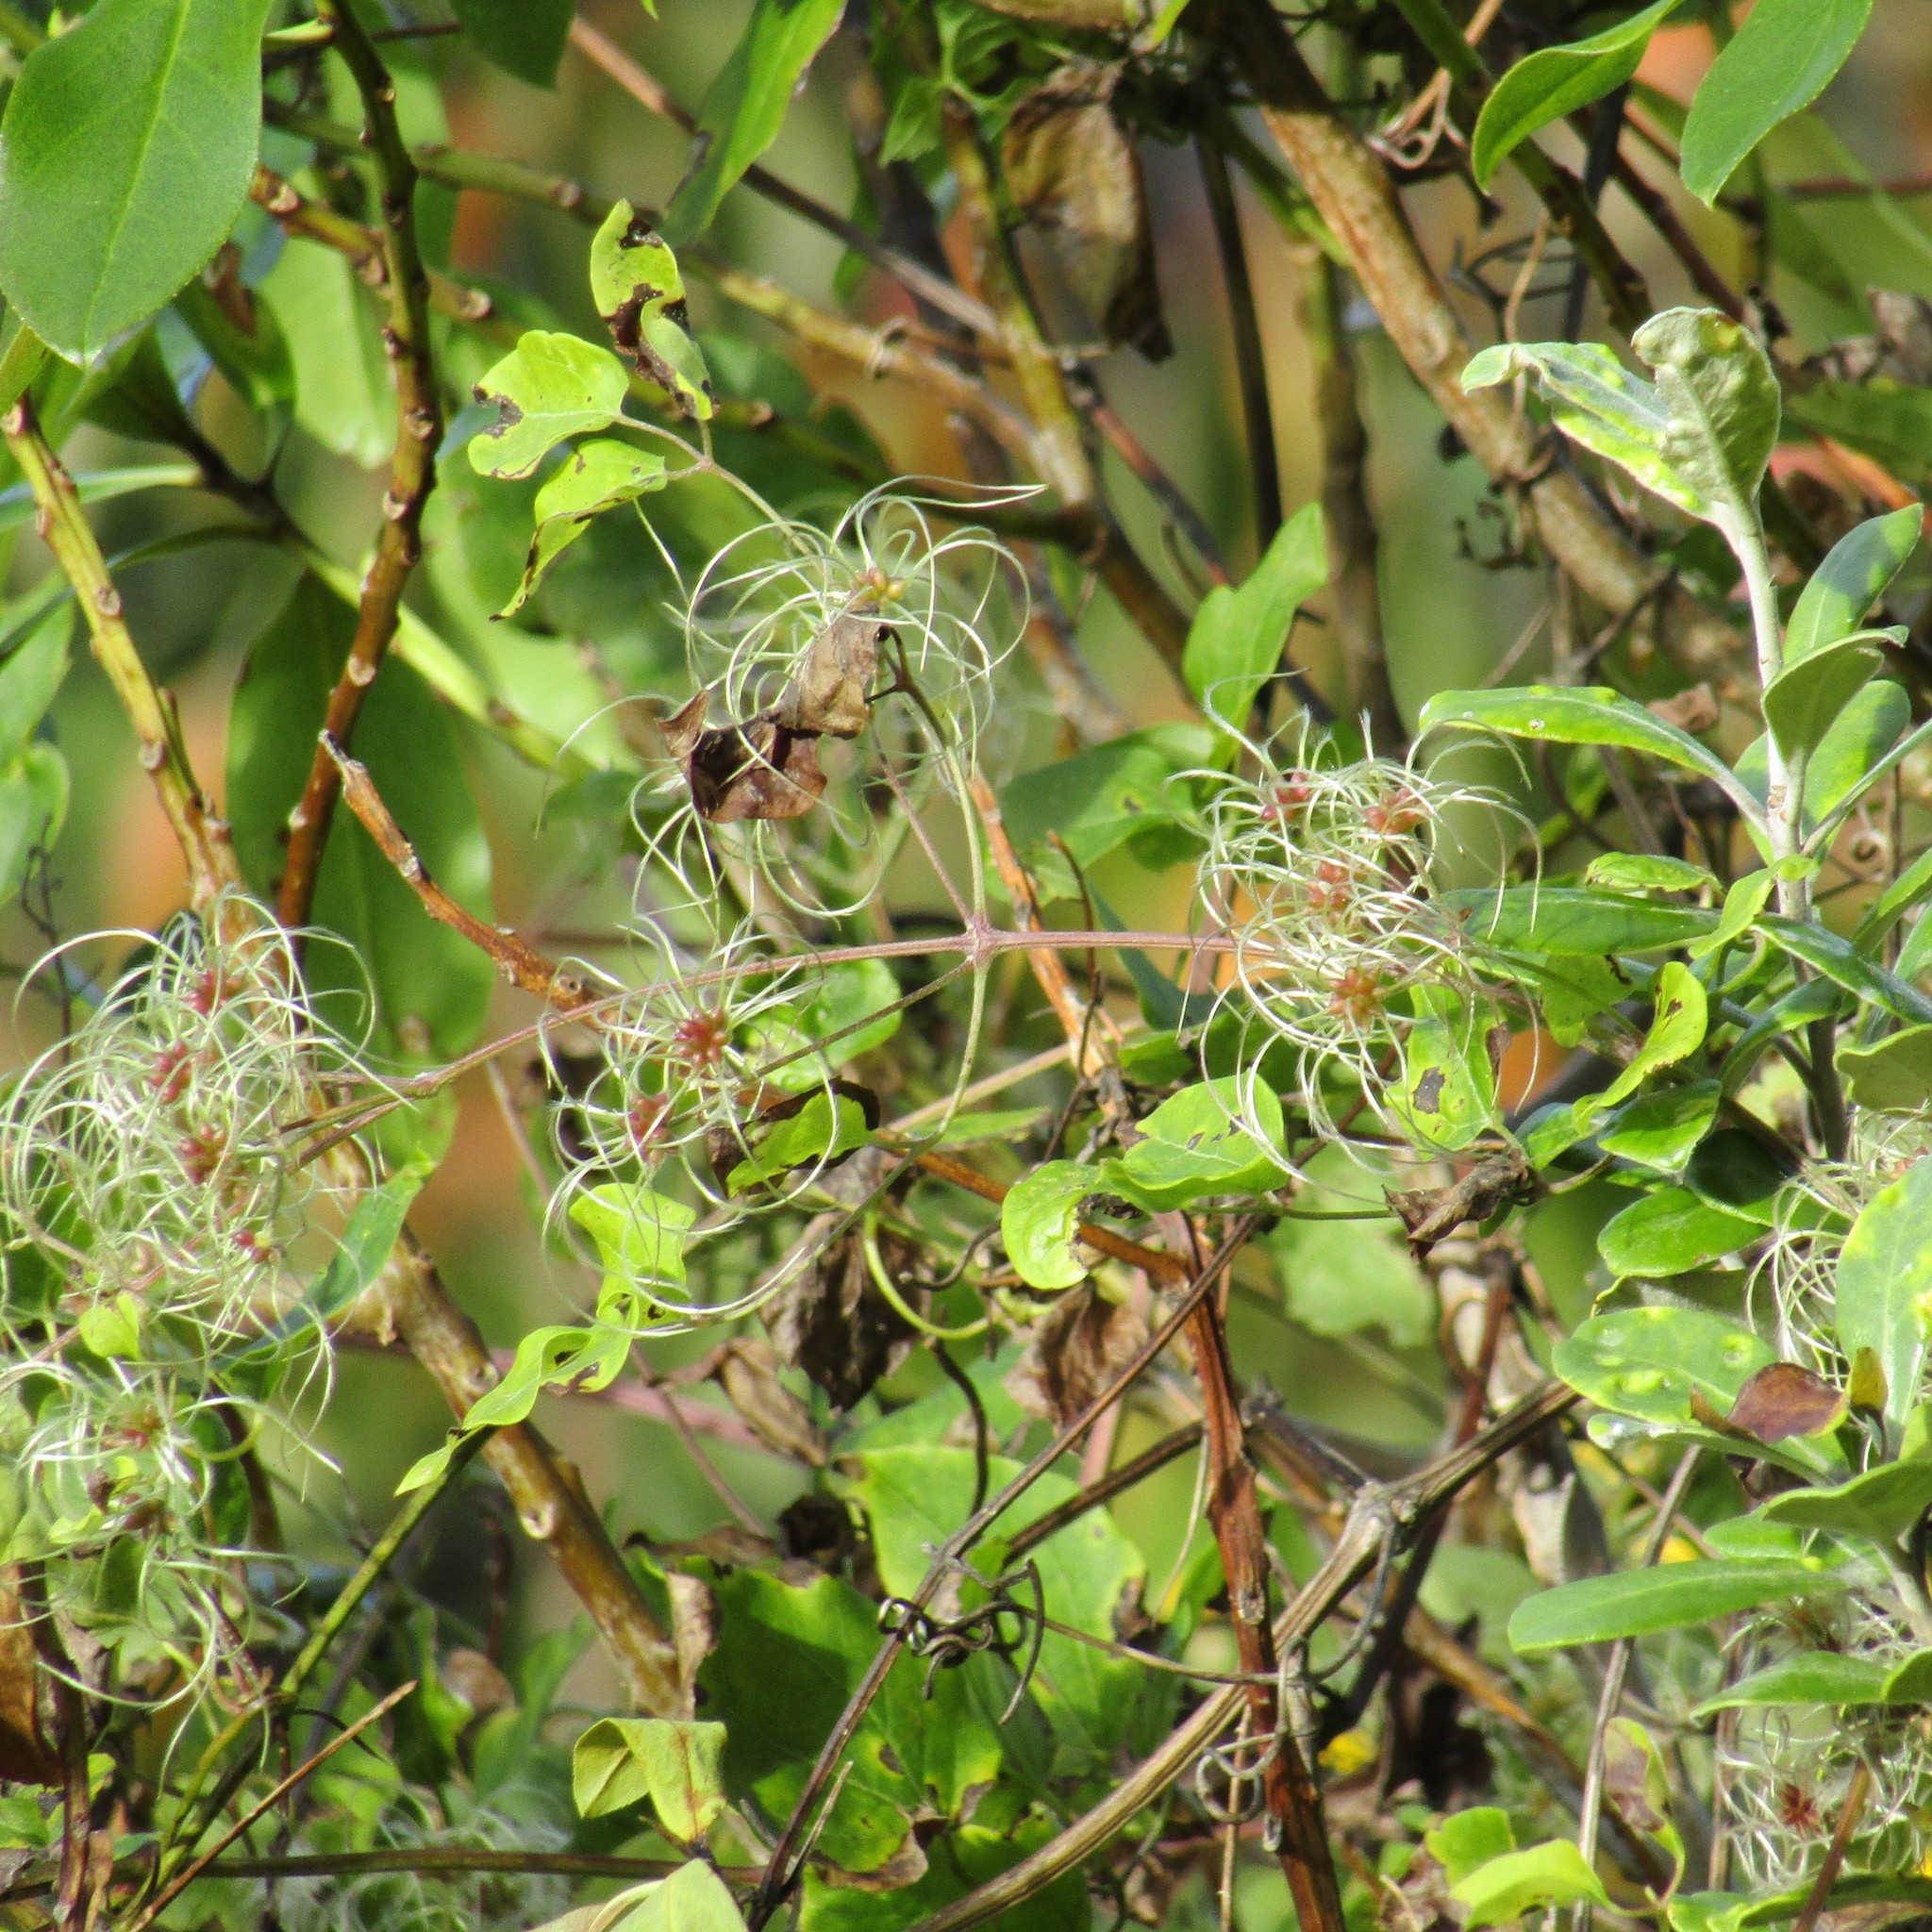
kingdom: Plantae
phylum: Tracheophyta
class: Magnoliopsida
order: Ranunculales
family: Ranunculaceae
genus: Clematis
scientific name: Clematis vitalba
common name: Evergreen clematis
